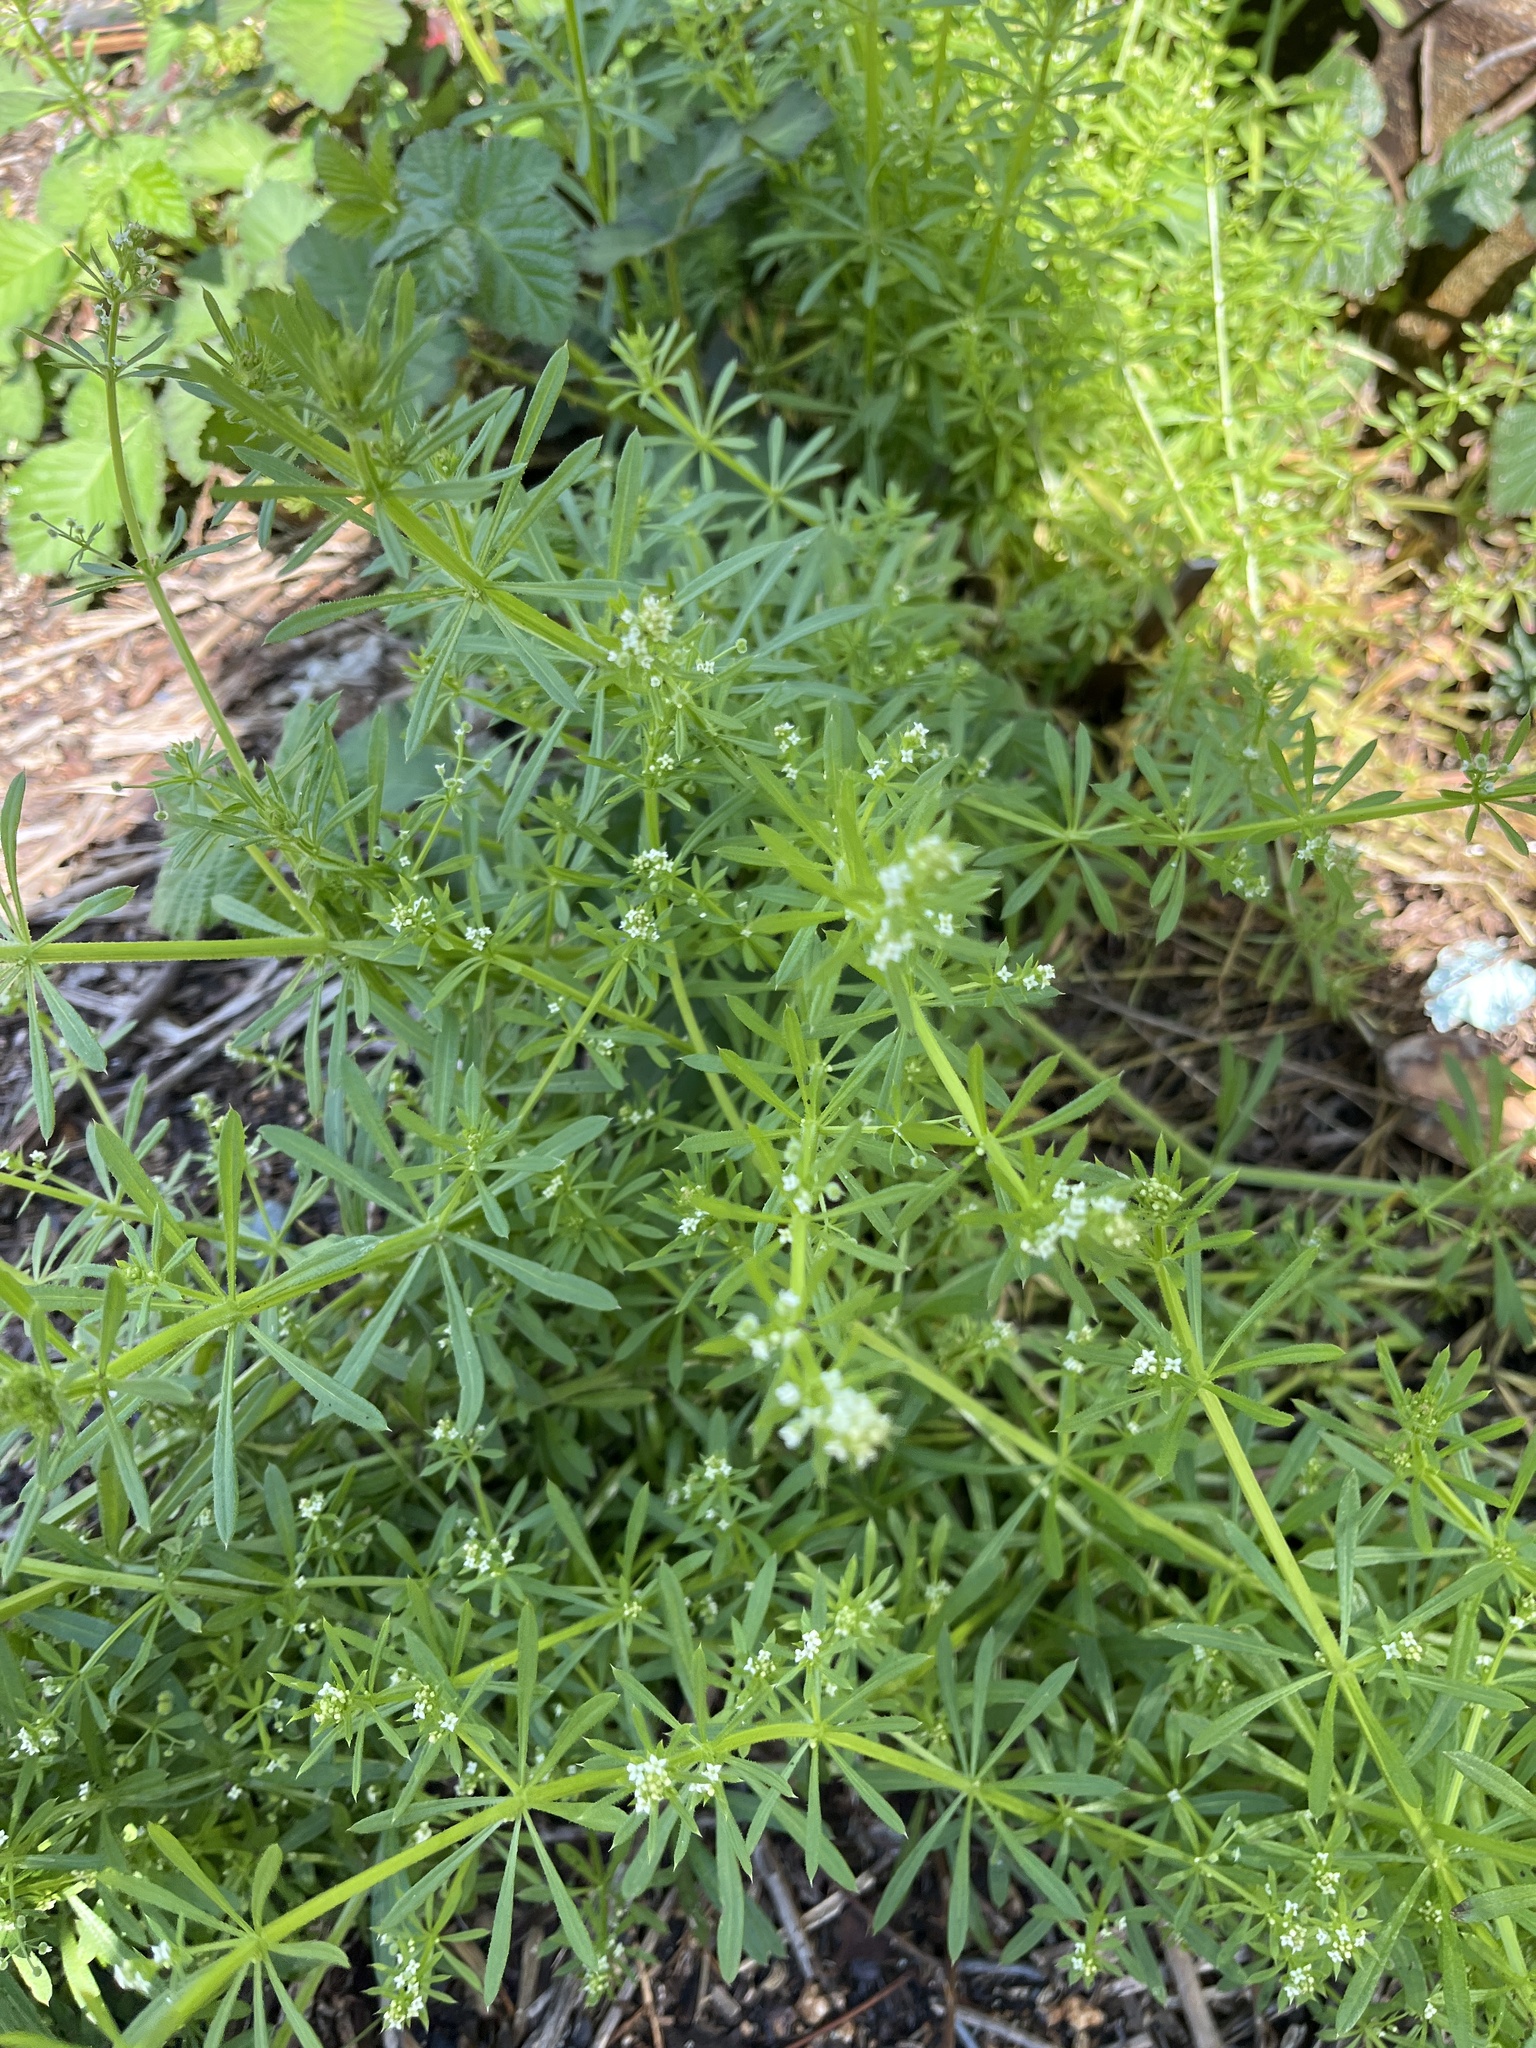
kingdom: Plantae
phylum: Tracheophyta
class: Magnoliopsida
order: Gentianales
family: Rubiaceae
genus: Galium
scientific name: Galium aparine
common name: Cleavers
